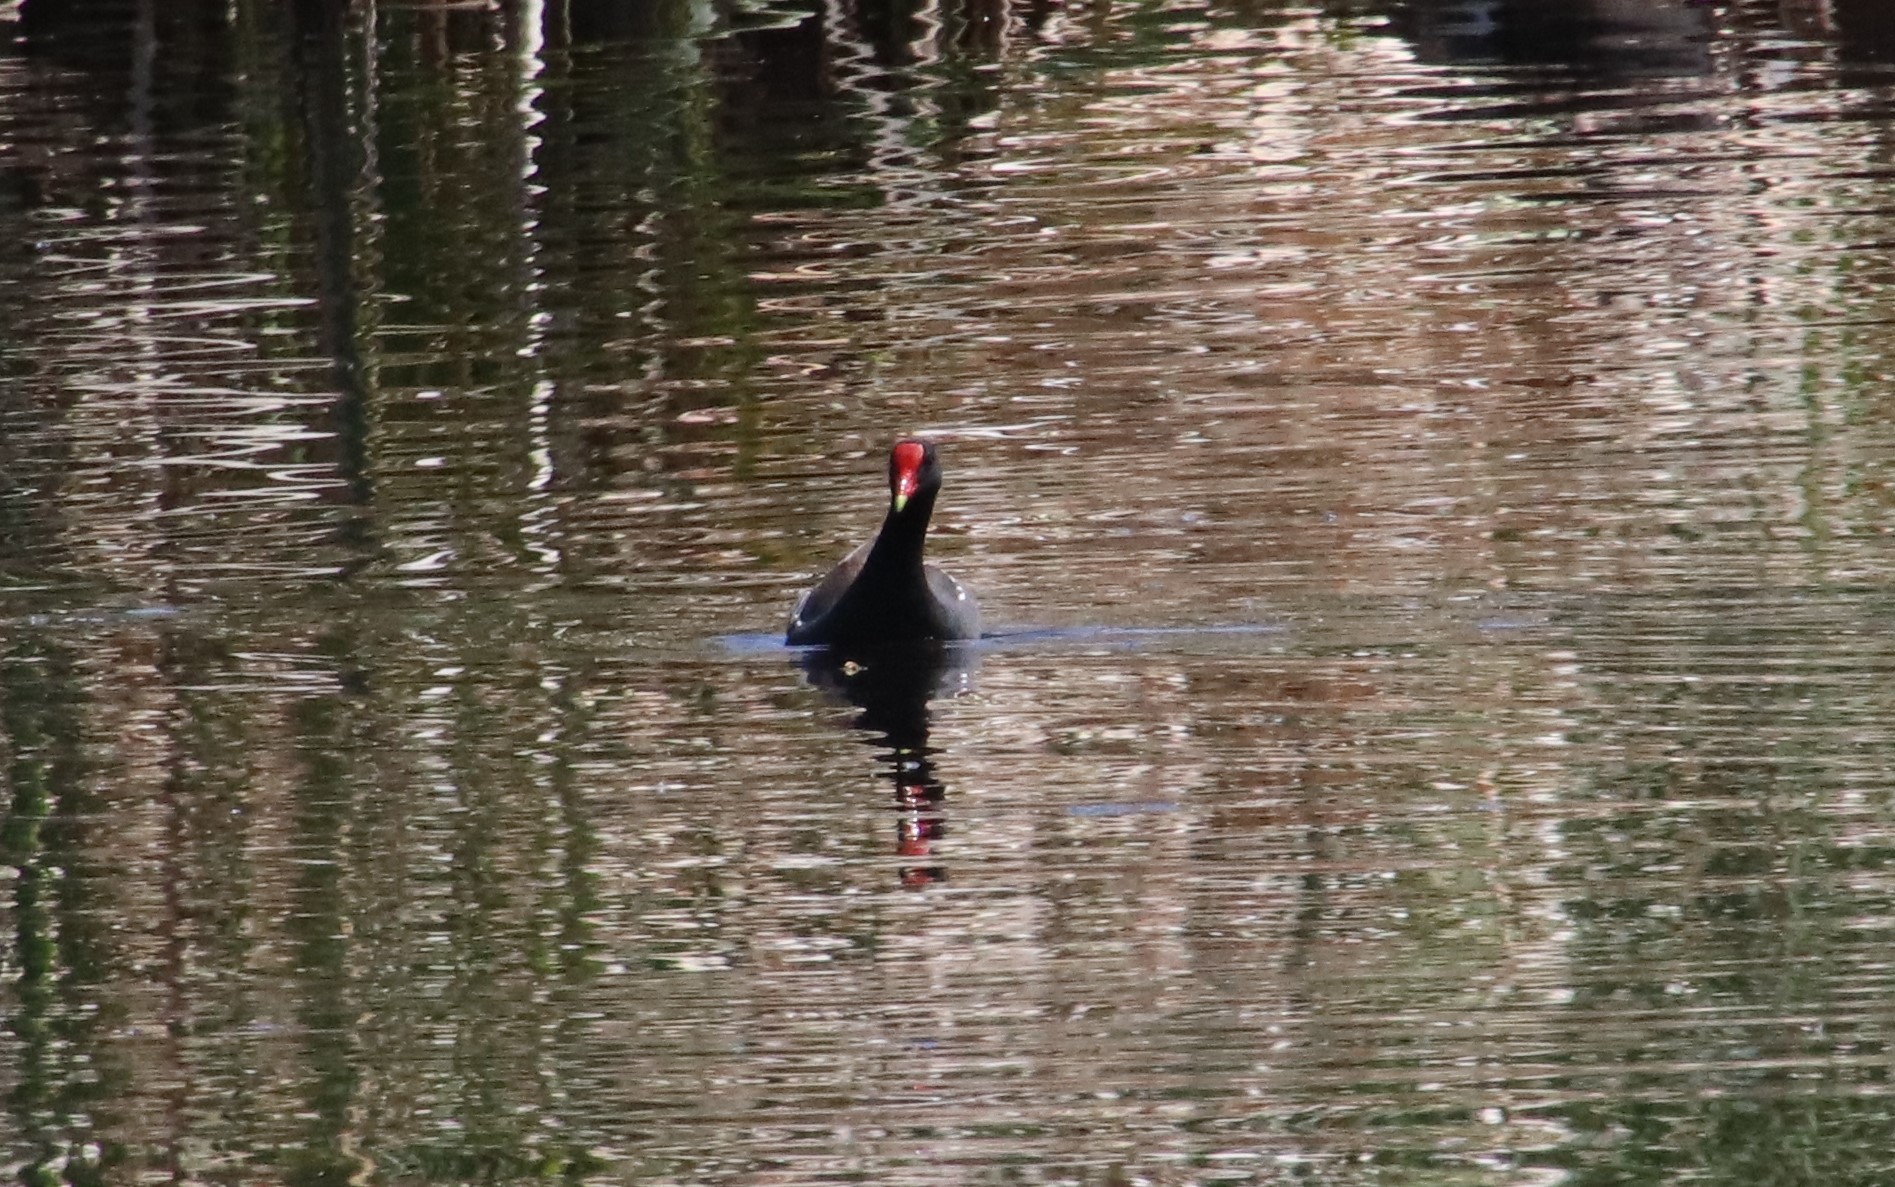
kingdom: Animalia
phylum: Chordata
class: Aves
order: Gruiformes
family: Rallidae
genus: Gallinula
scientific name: Gallinula chloropus
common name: Common moorhen
